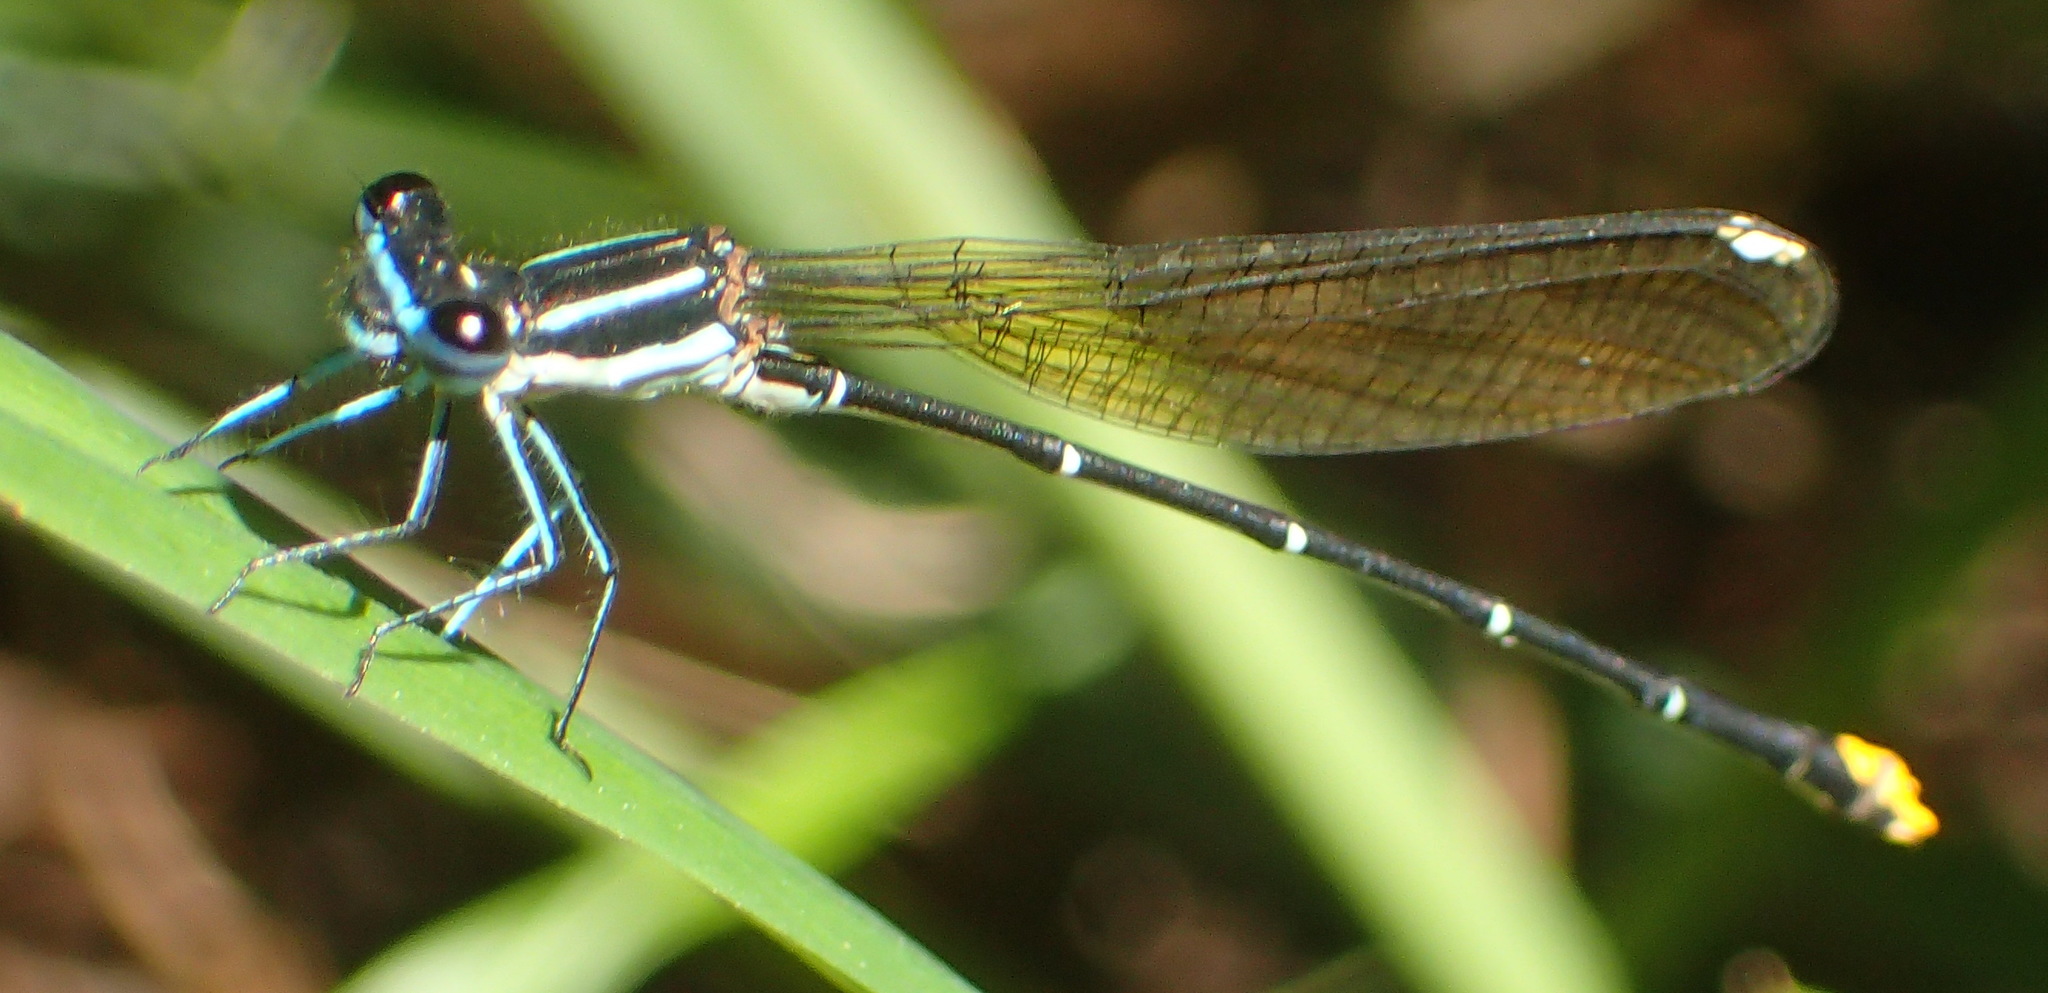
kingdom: Animalia
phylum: Arthropoda
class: Insecta
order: Odonata
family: Platycnemididae
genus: Allocnemis
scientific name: Allocnemis leucosticta
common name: Goldtail
